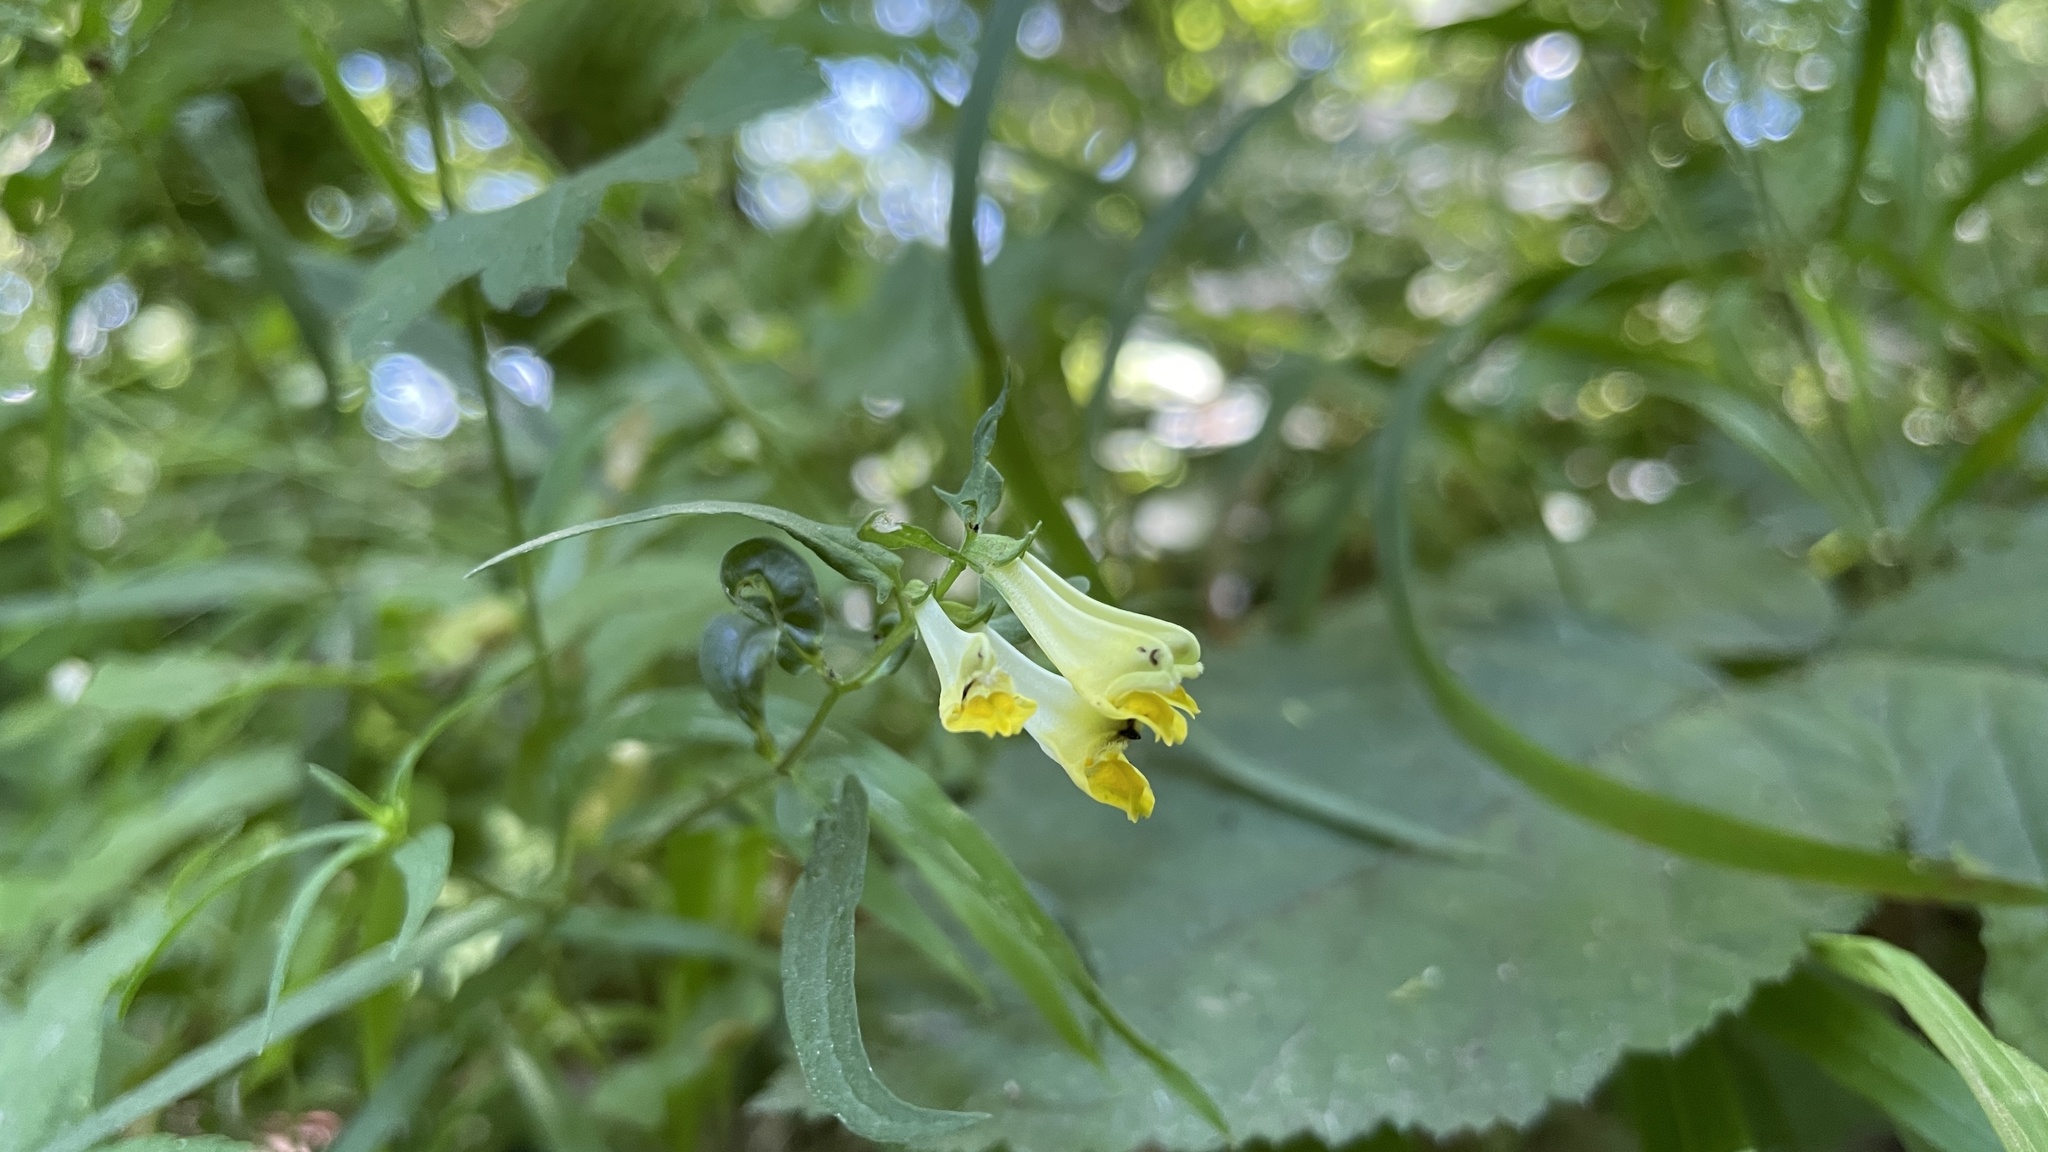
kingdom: Plantae
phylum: Tracheophyta
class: Magnoliopsida
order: Lamiales
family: Orobanchaceae
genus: Melampyrum
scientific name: Melampyrum pratense
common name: Common cow-wheat
